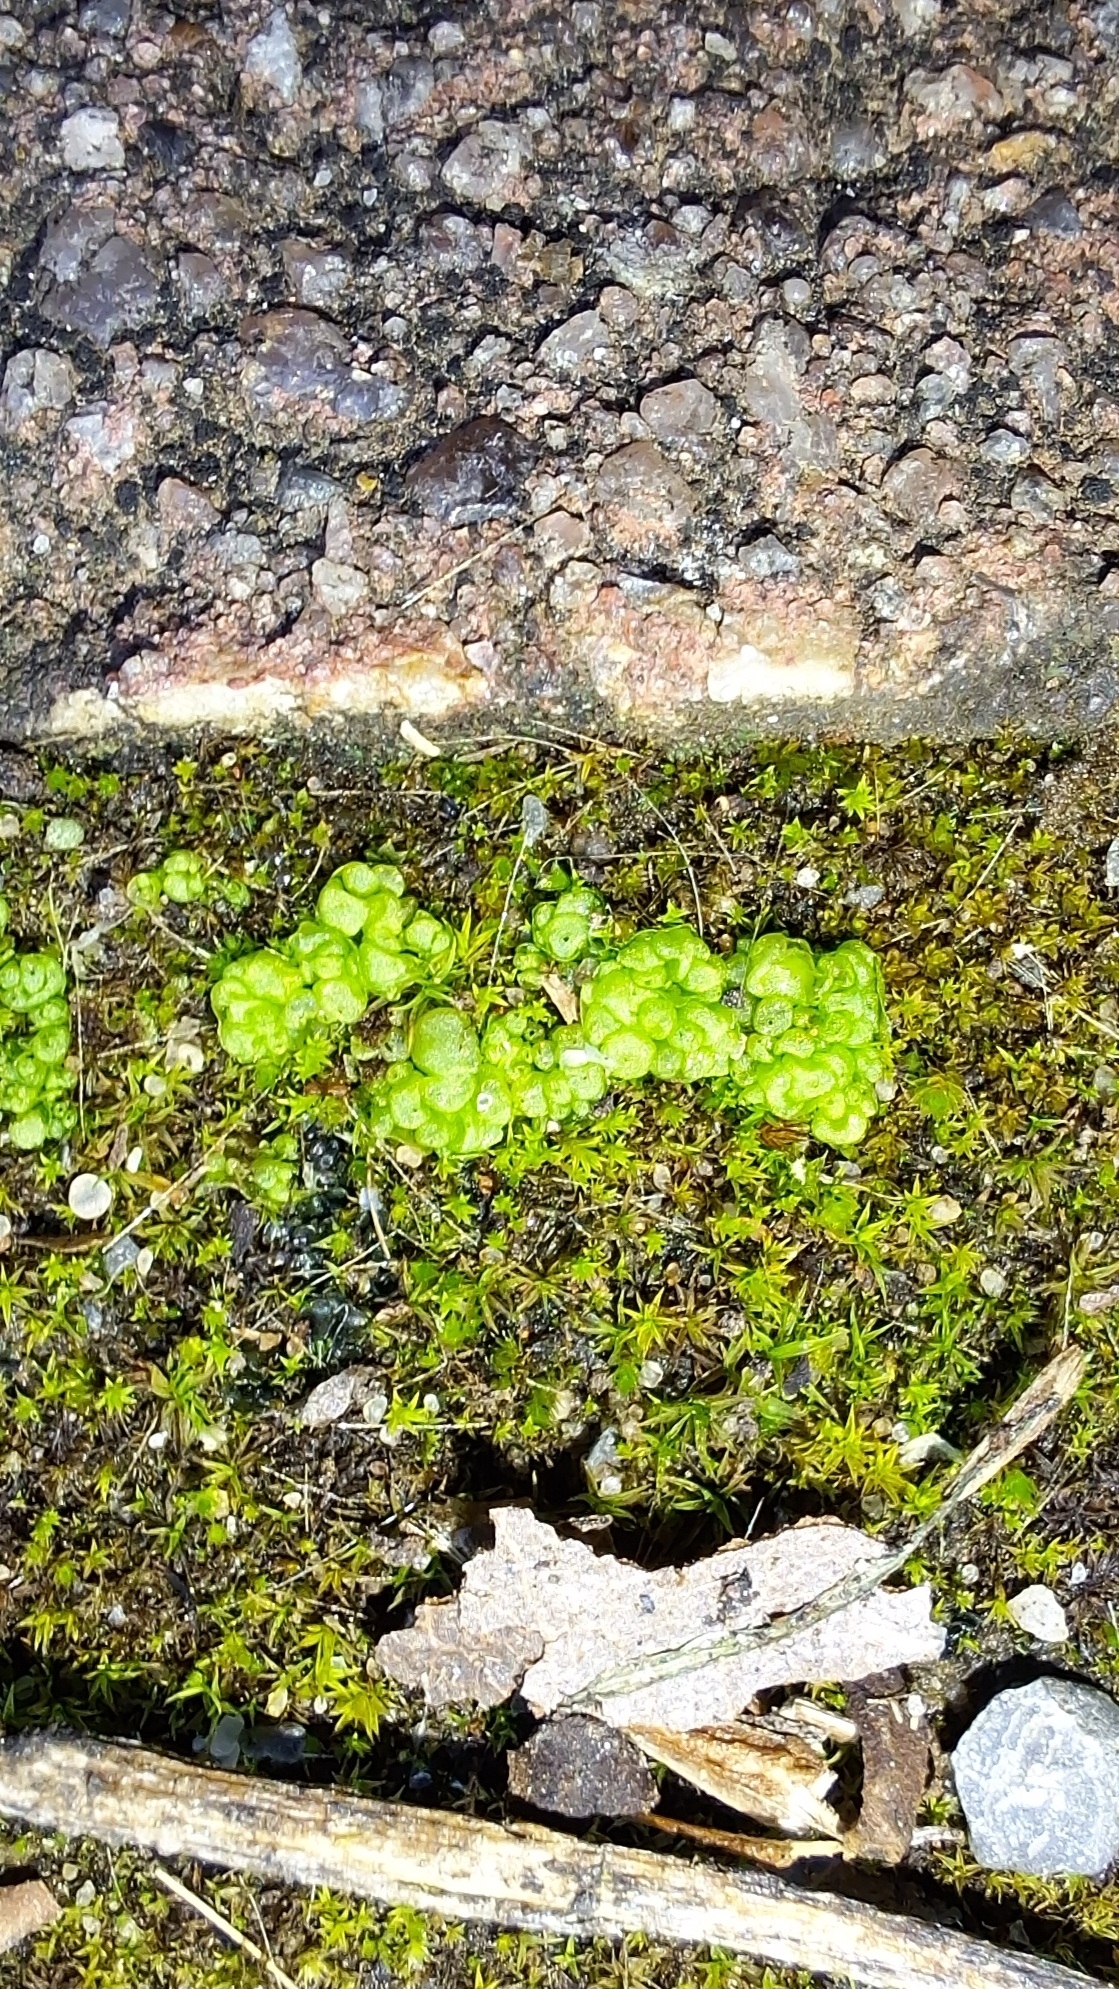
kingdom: Plantae
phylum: Marchantiophyta
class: Marchantiopsida
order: Sphaerocarpales
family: Sphaerocarpaceae
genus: Sphaerocarpos
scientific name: Sphaerocarpos texanus
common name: Texas balloonwort
